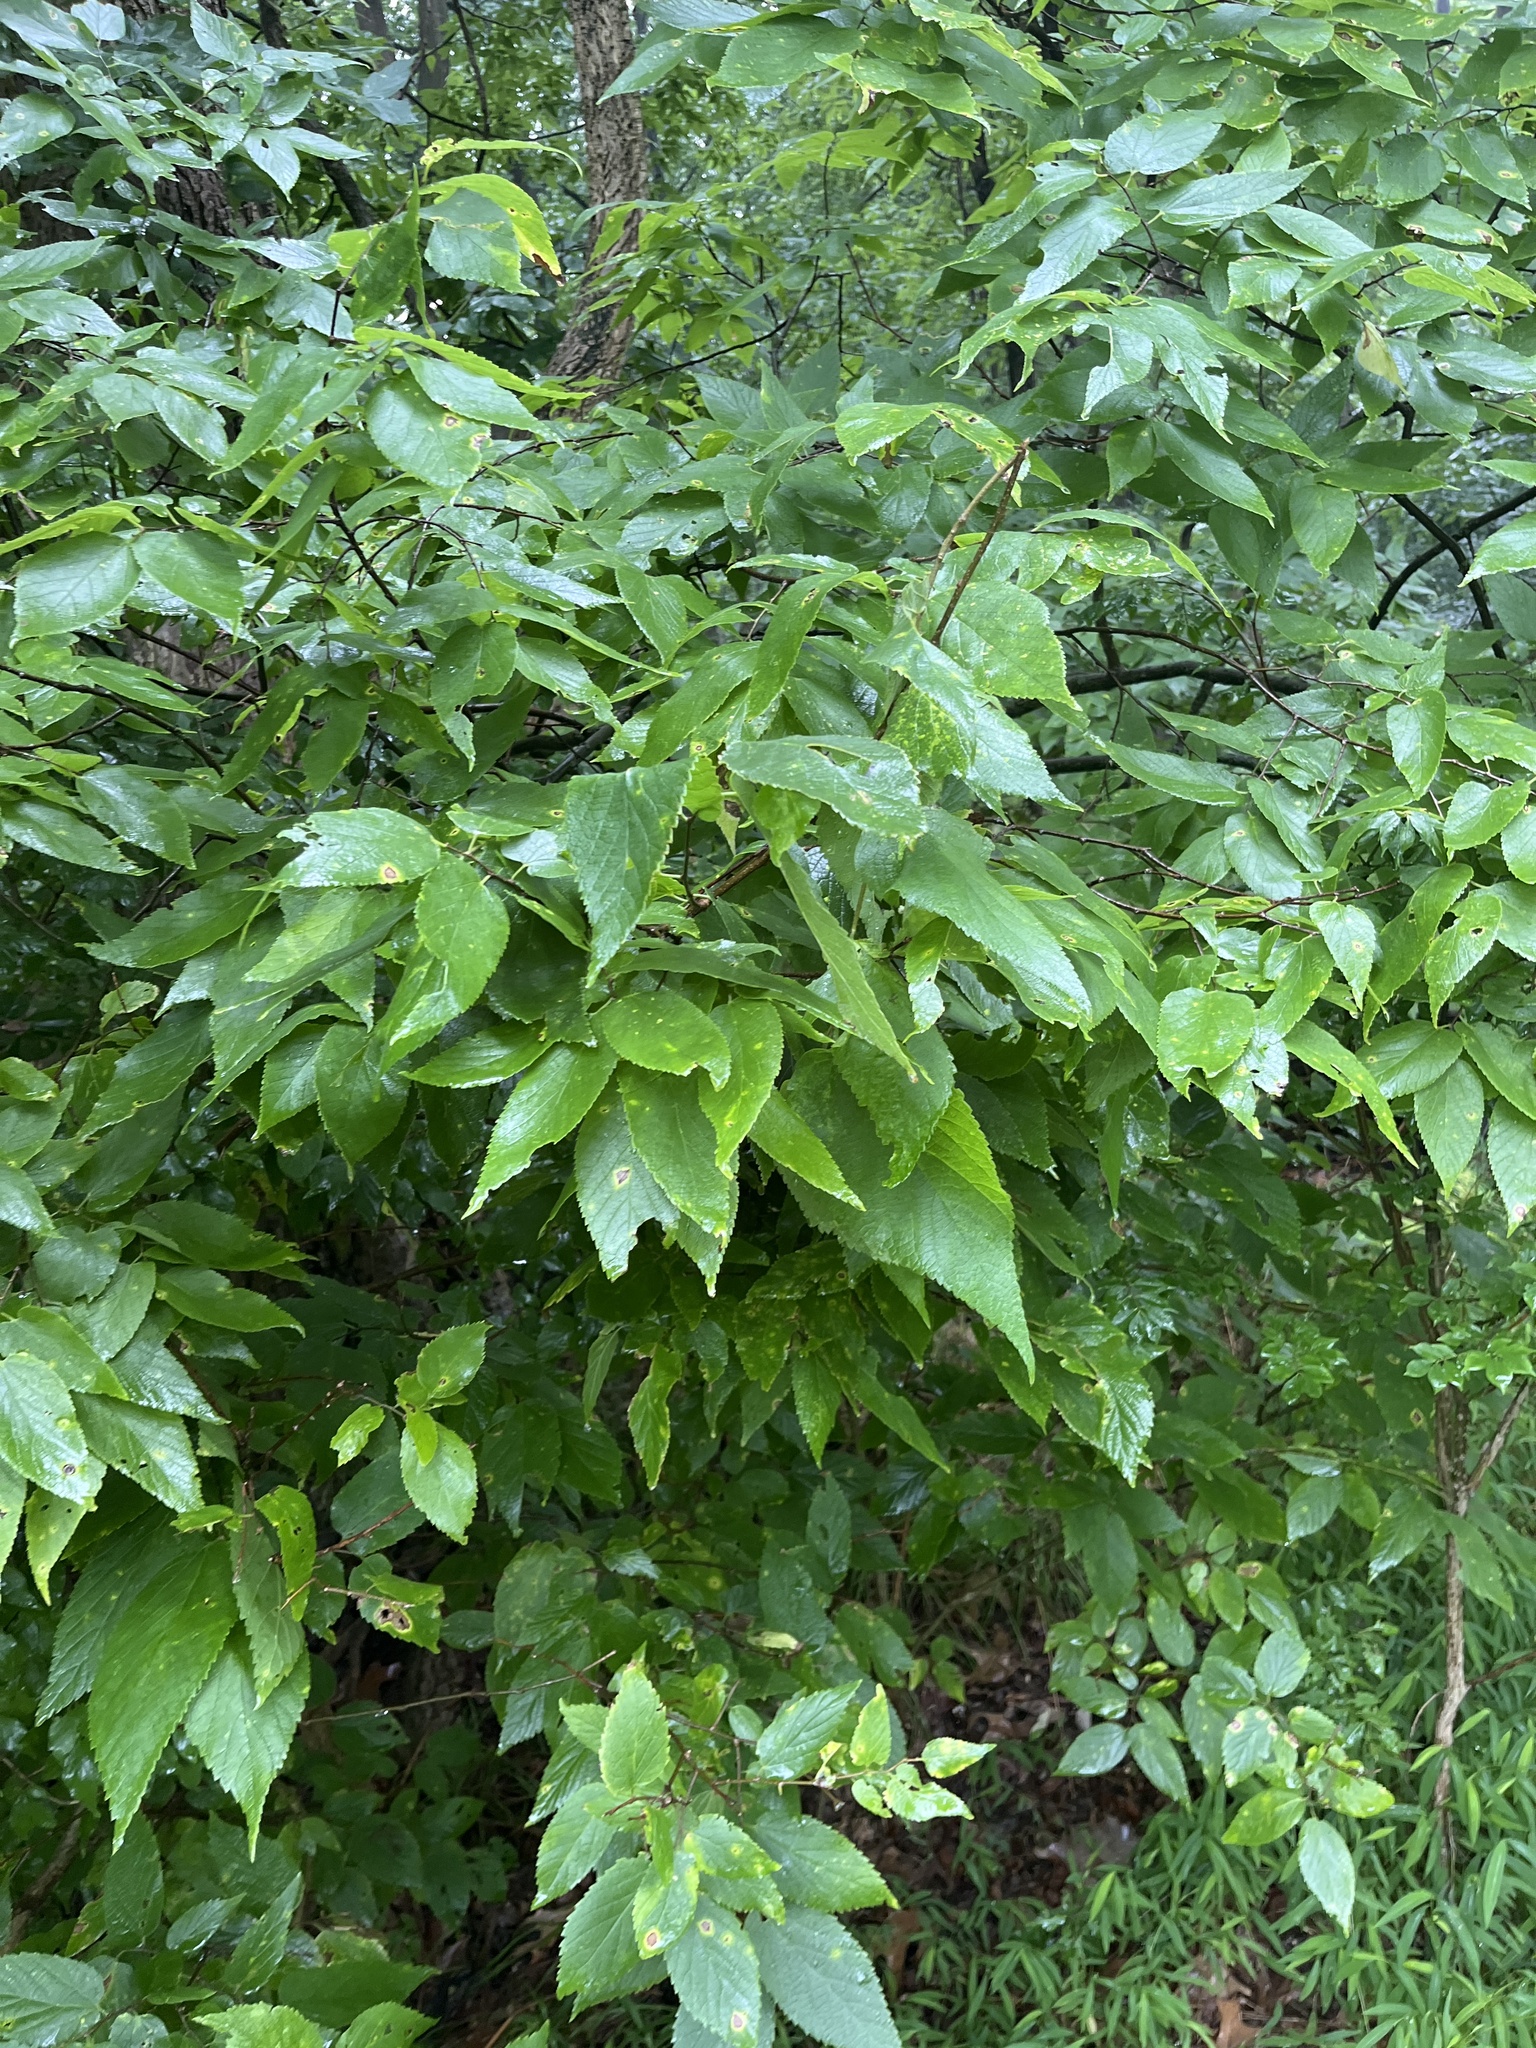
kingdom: Plantae
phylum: Tracheophyta
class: Magnoliopsida
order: Rosales
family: Cannabaceae
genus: Celtis
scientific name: Celtis occidentalis
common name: Common hackberry
